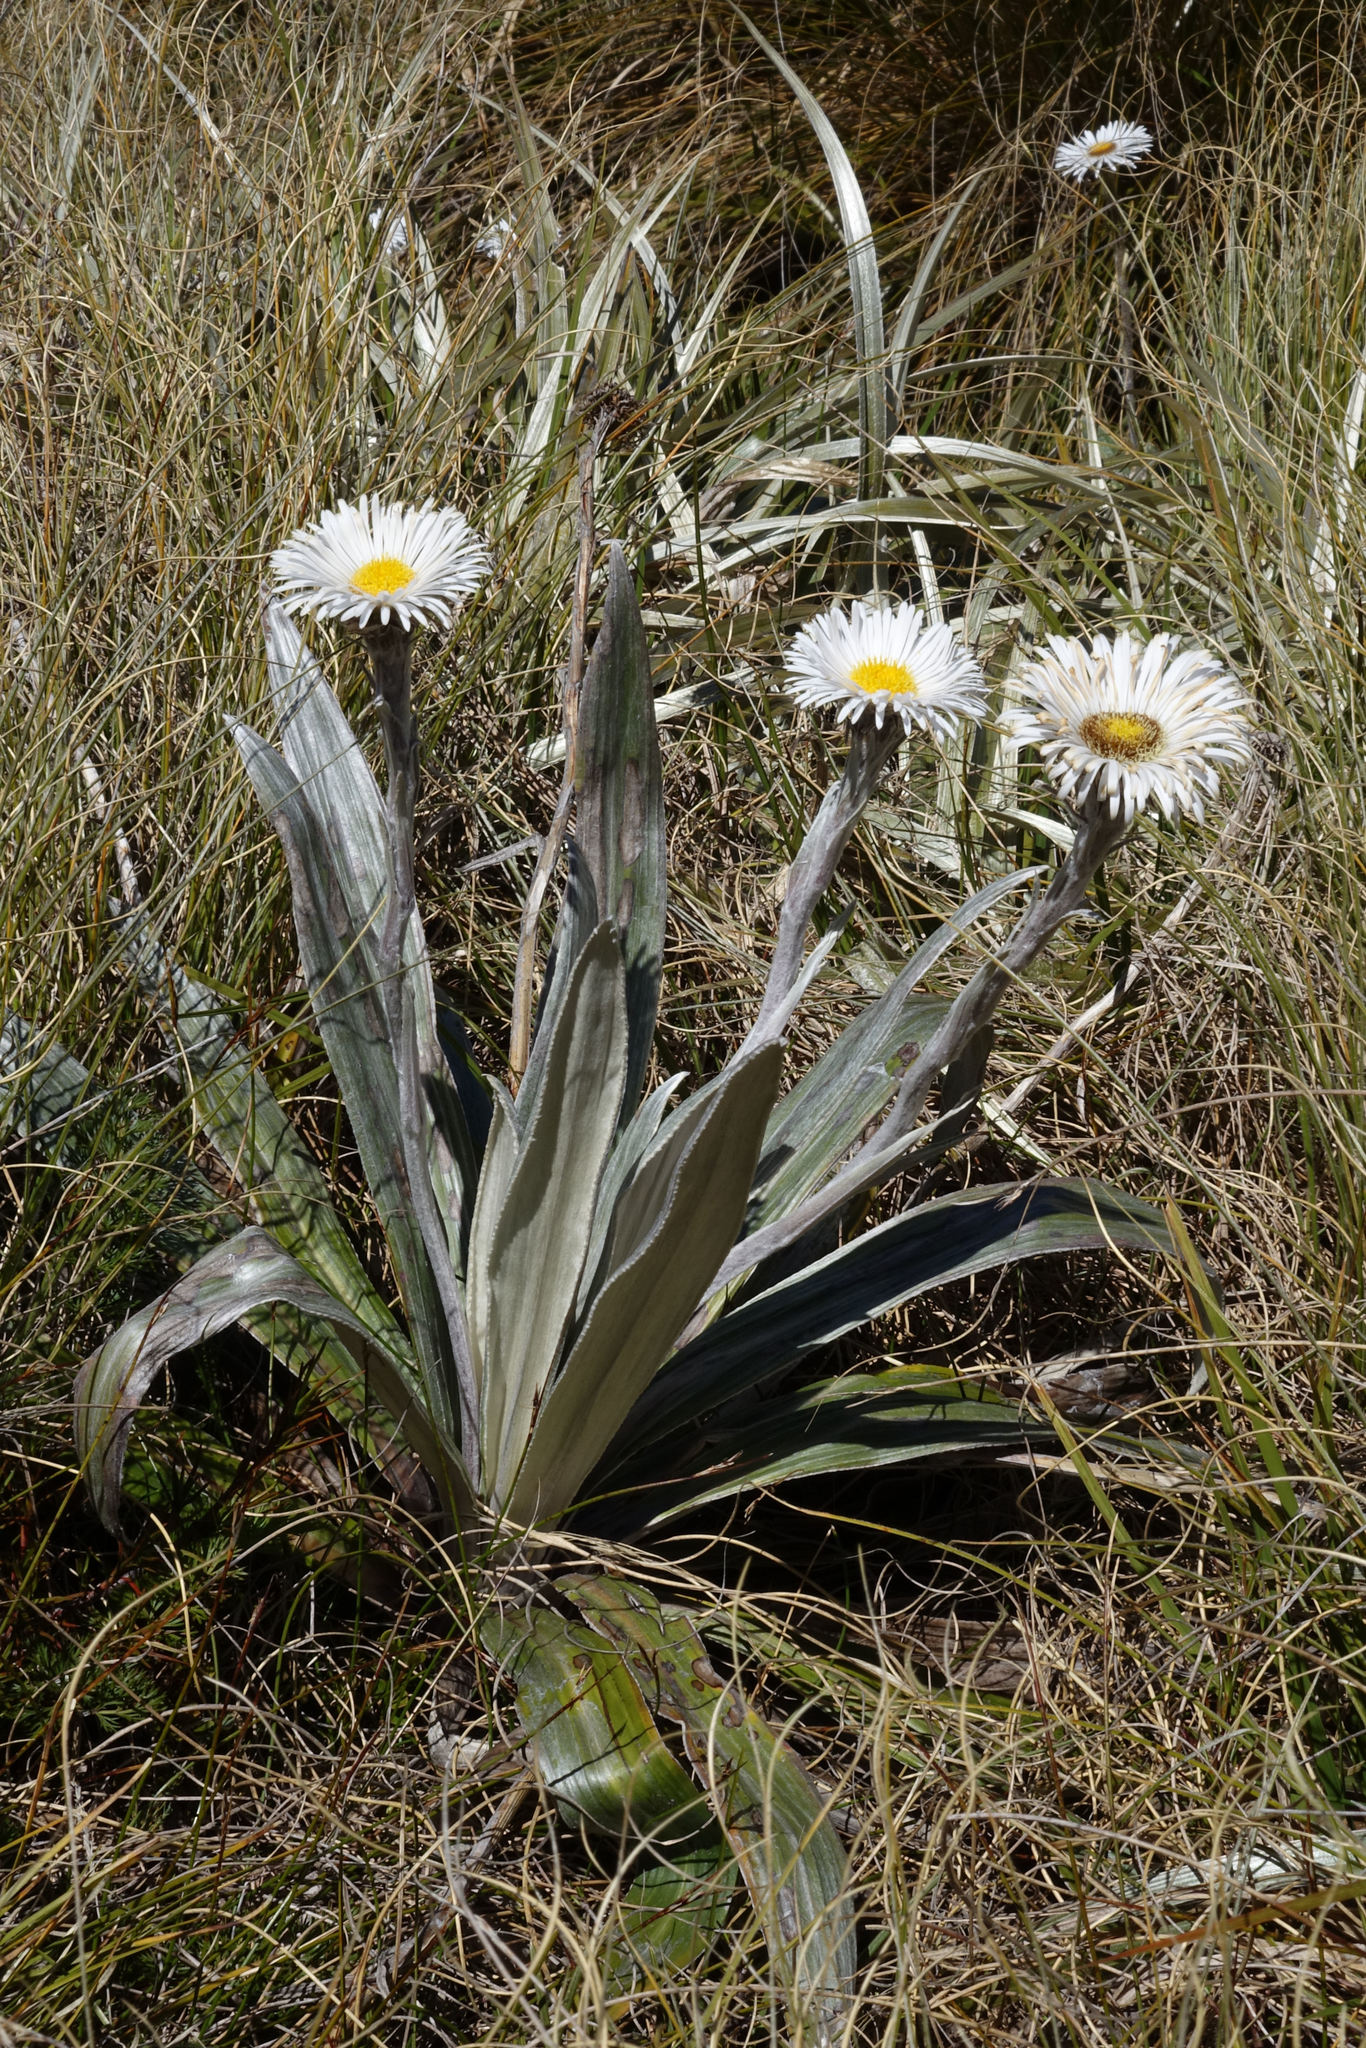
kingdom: Plantae
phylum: Tracheophyta
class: Magnoliopsida
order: Asterales
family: Asteraceae
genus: Celmisia
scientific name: Celmisia semicordata
